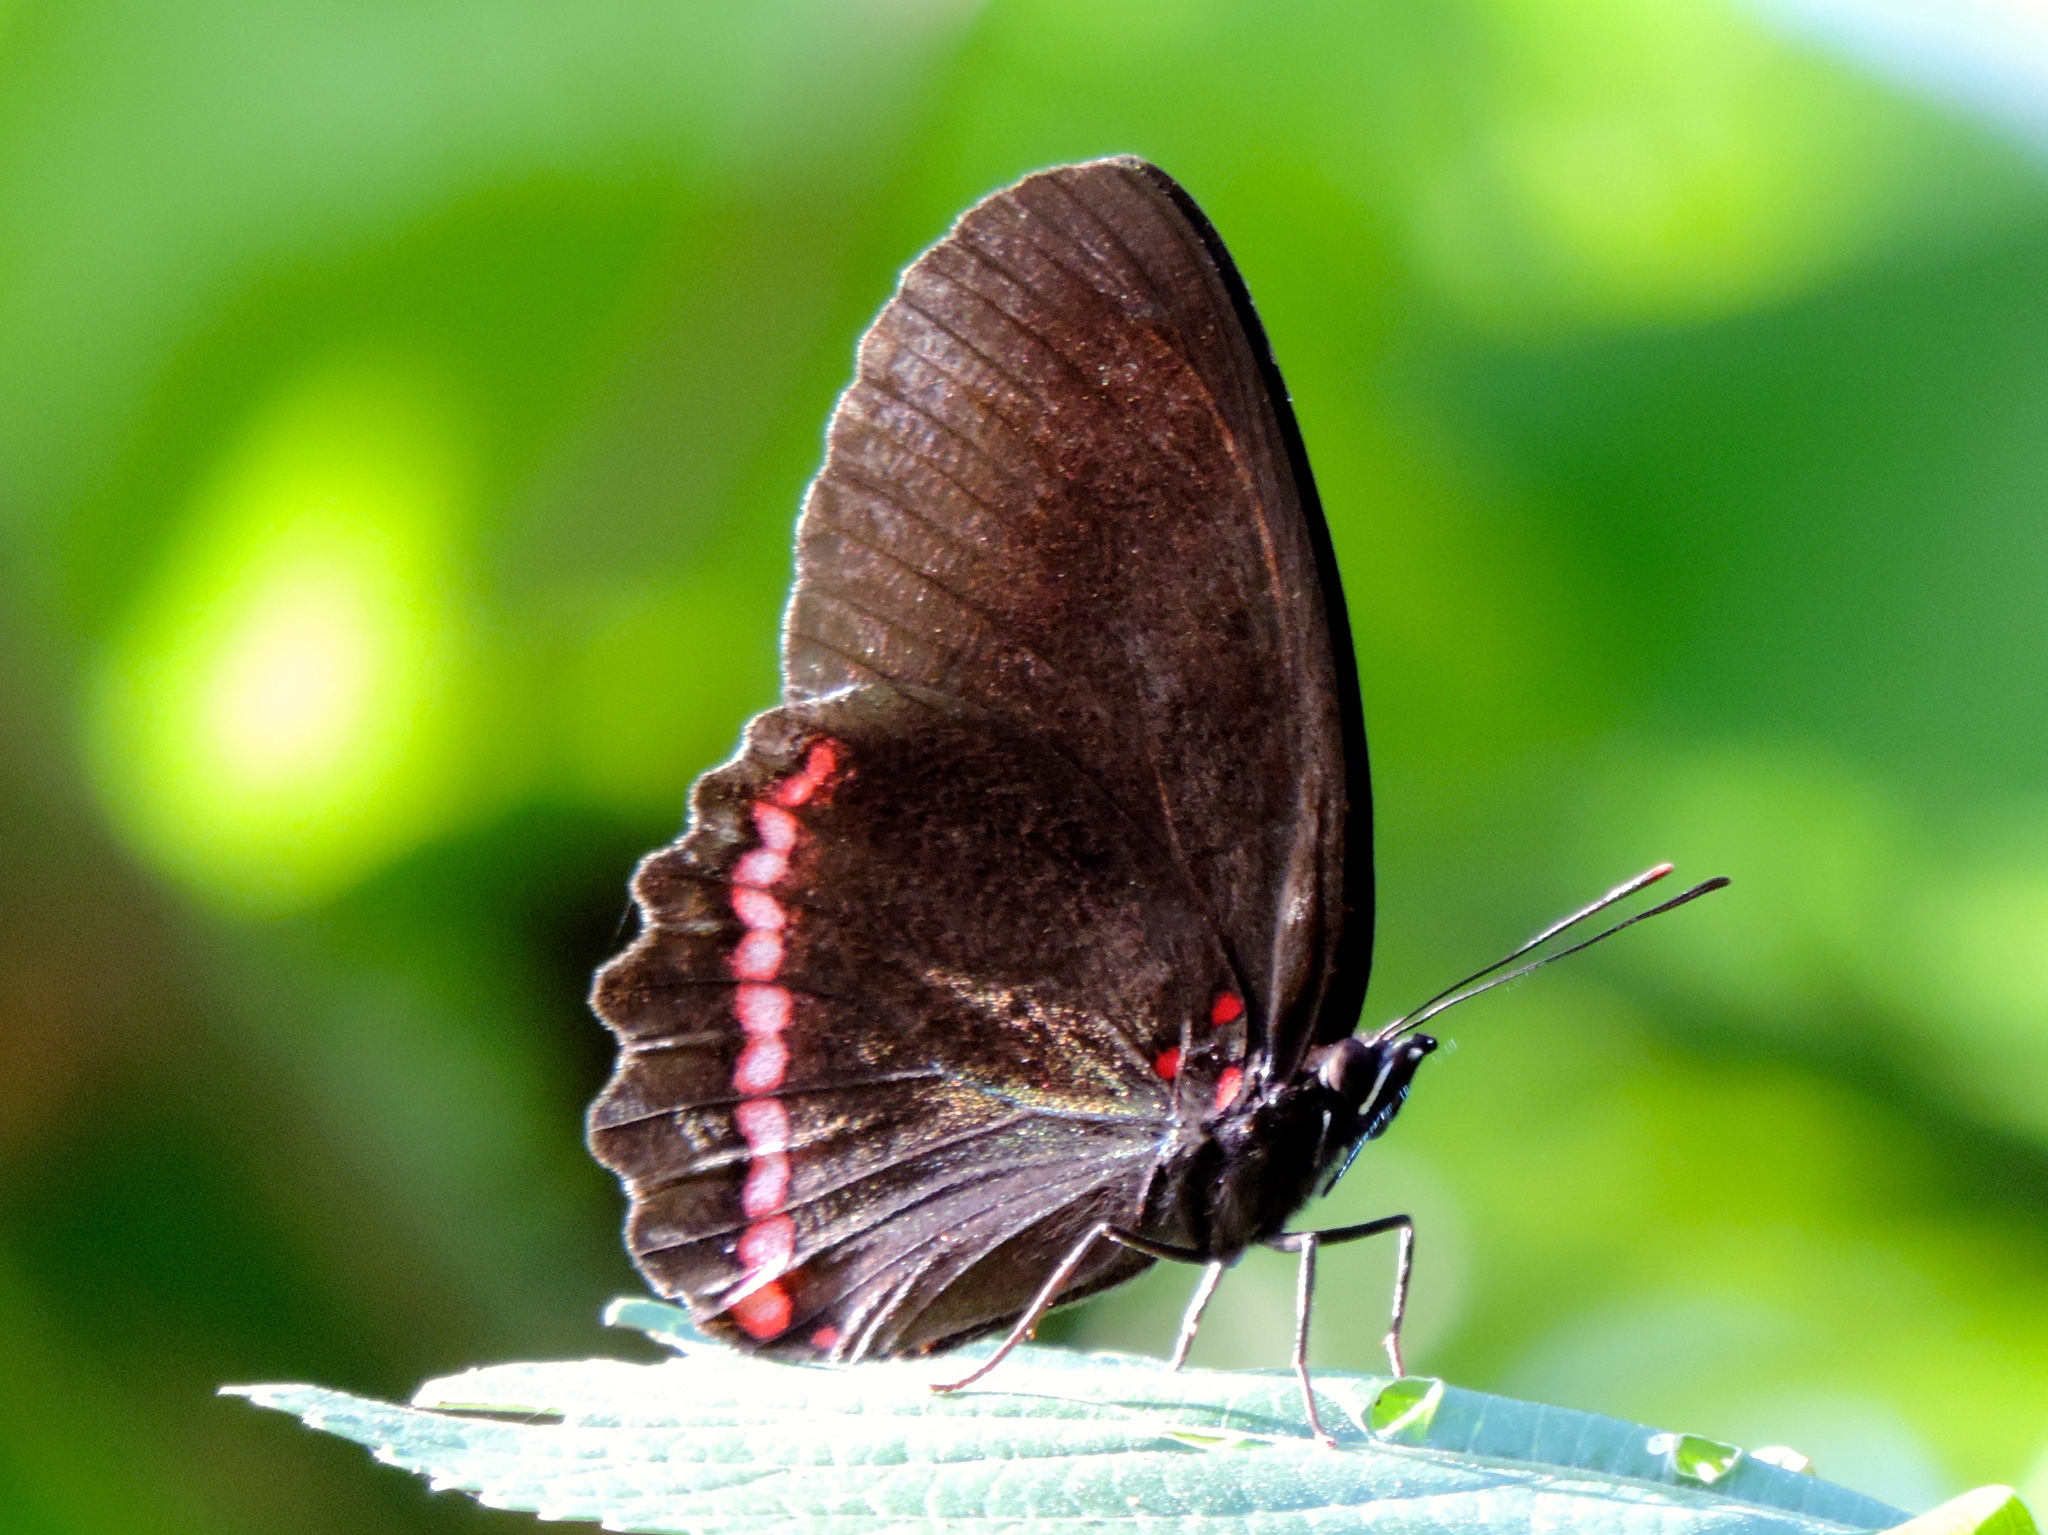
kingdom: Animalia
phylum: Arthropoda
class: Insecta
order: Lepidoptera
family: Nymphalidae
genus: Biblis
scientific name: Biblis
